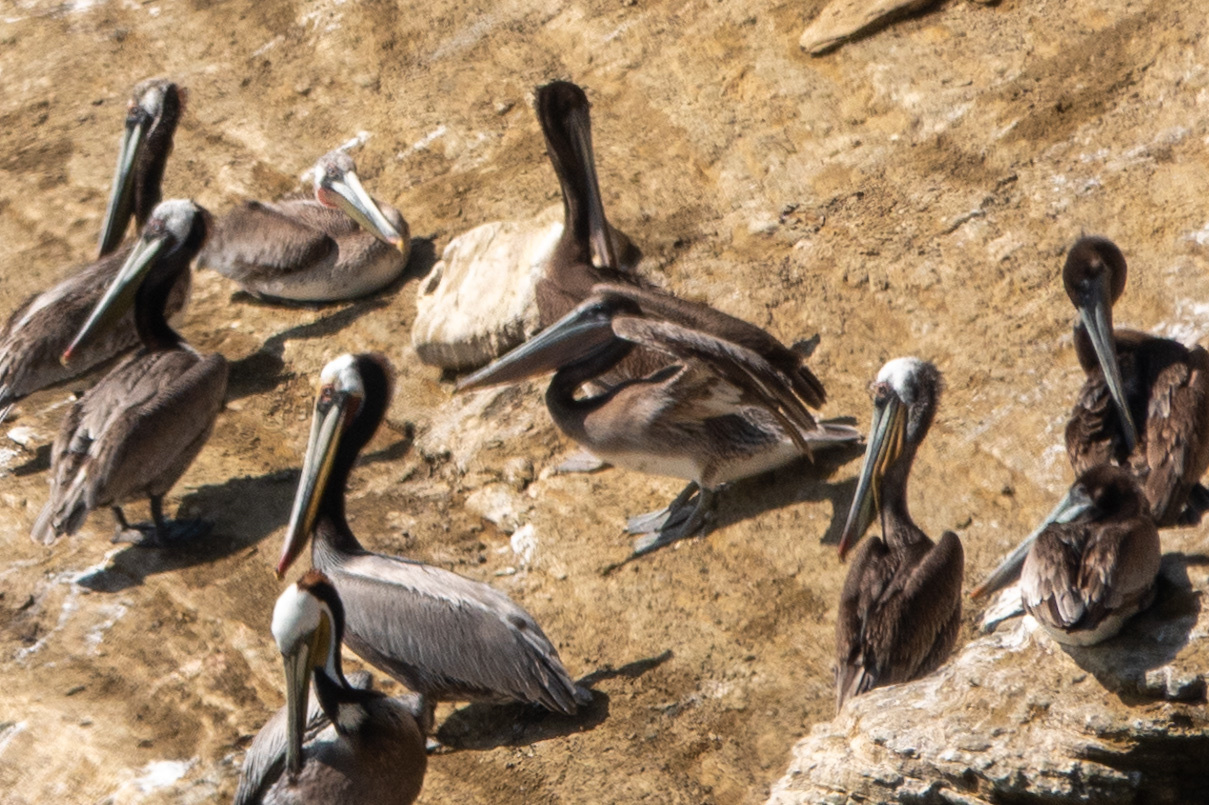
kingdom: Animalia
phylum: Chordata
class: Aves
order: Pelecaniformes
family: Pelecanidae
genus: Pelecanus
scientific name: Pelecanus occidentalis
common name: Brown pelican
